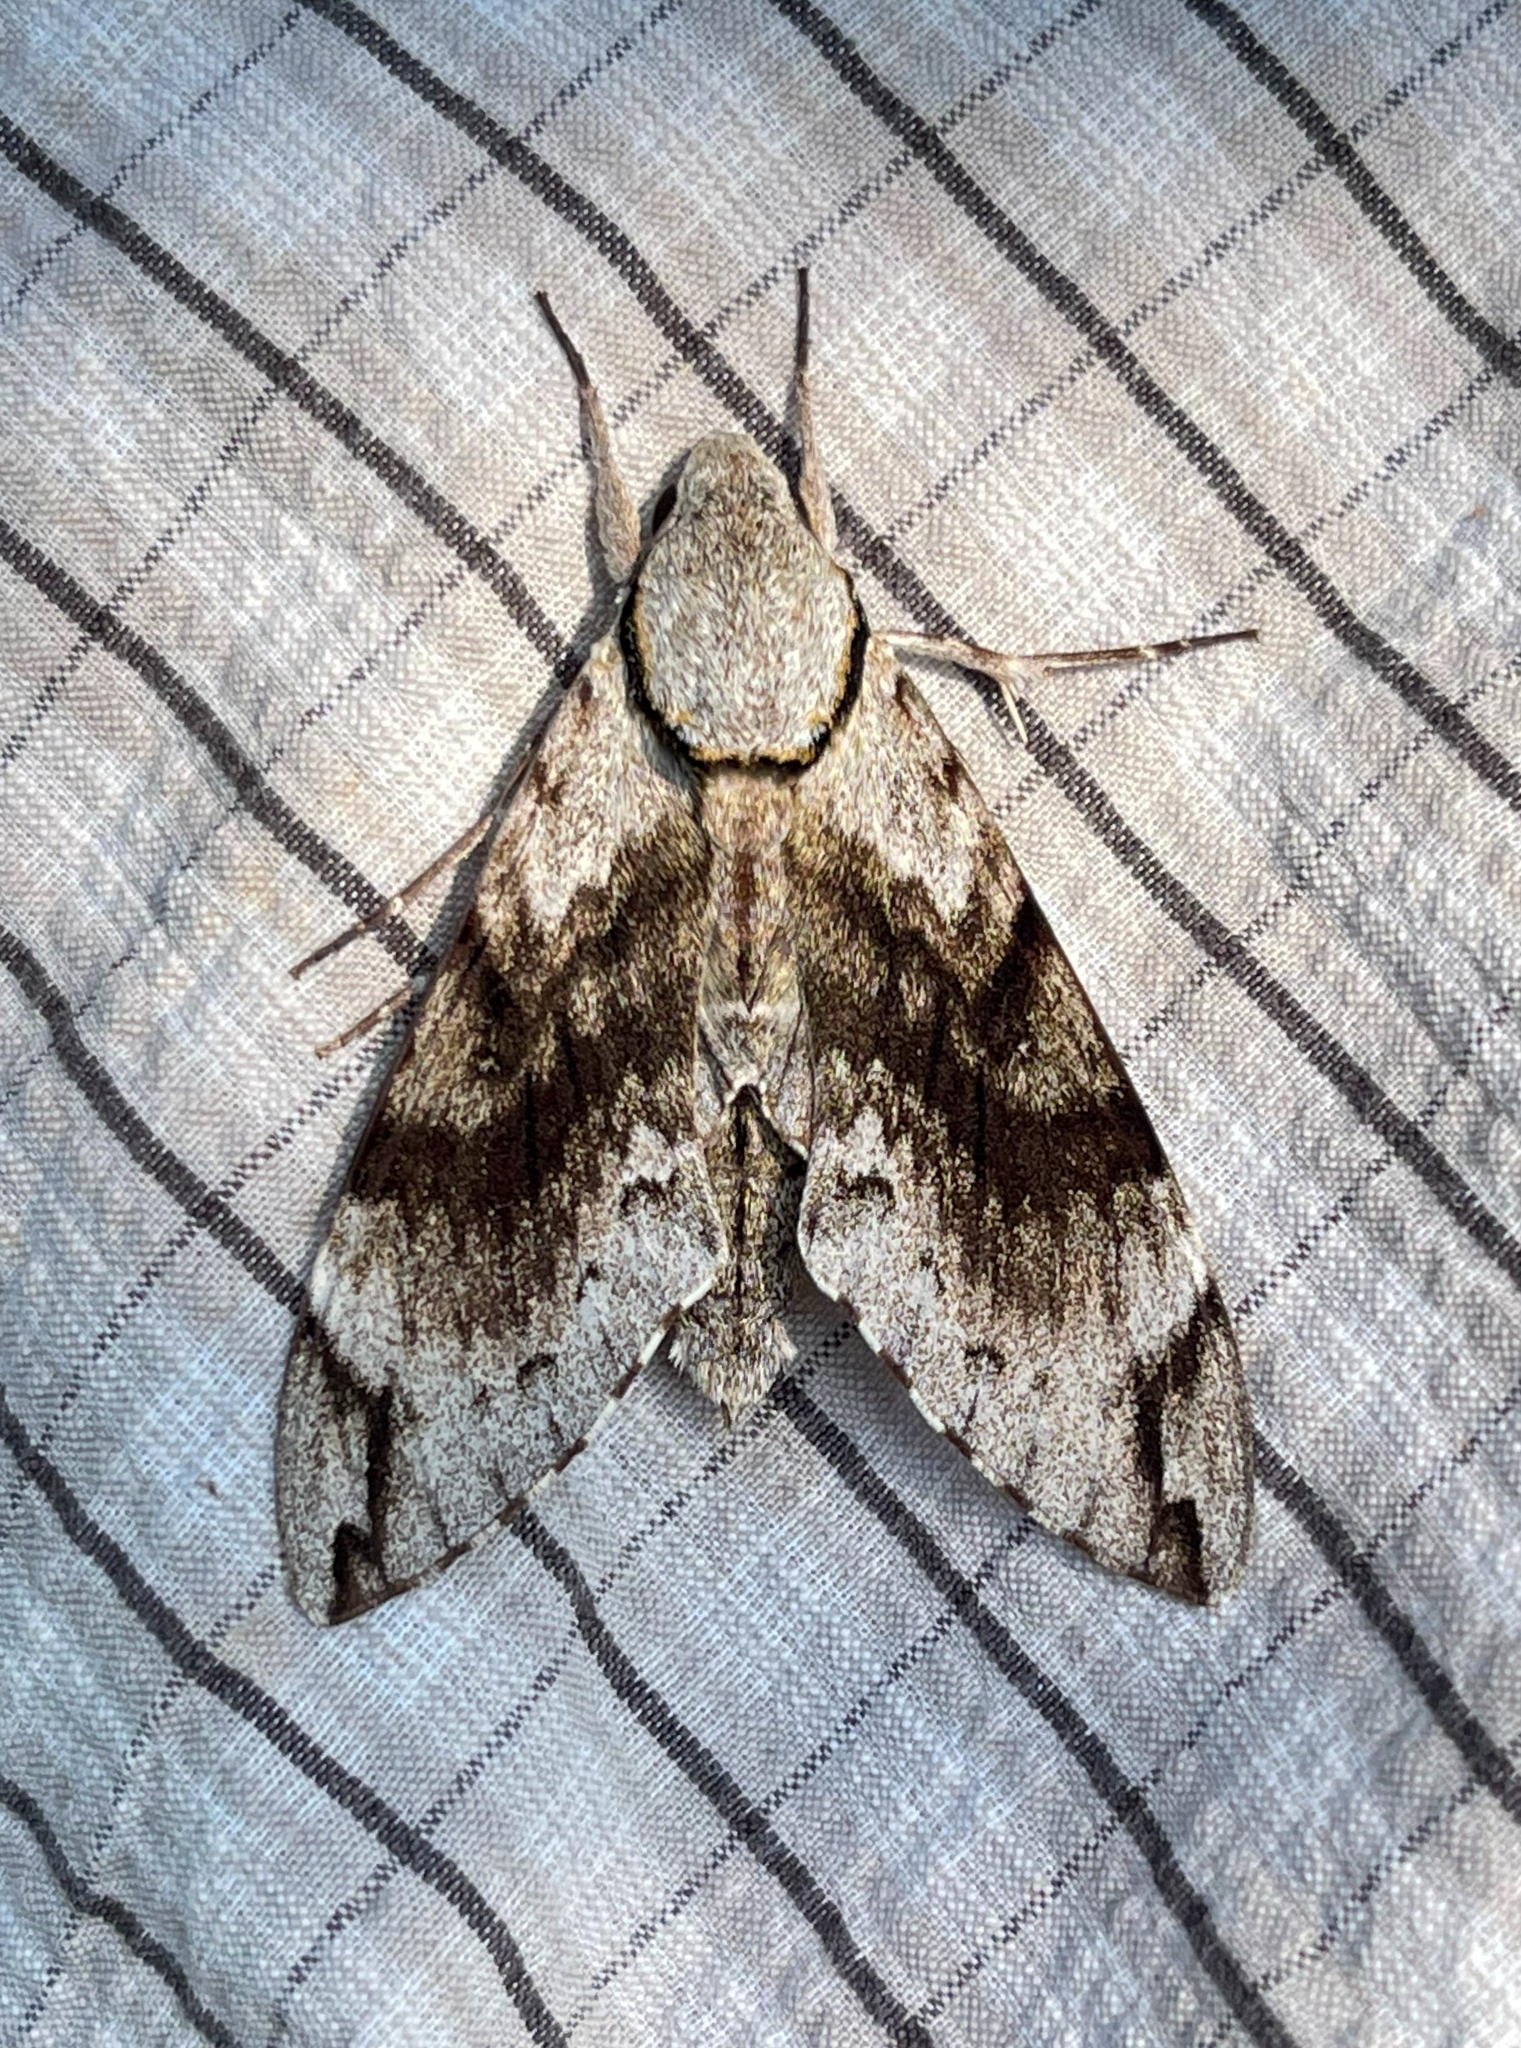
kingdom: Animalia
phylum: Arthropoda
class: Insecta
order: Lepidoptera
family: Sphingidae
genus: Psilogramma
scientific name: Psilogramma vates
